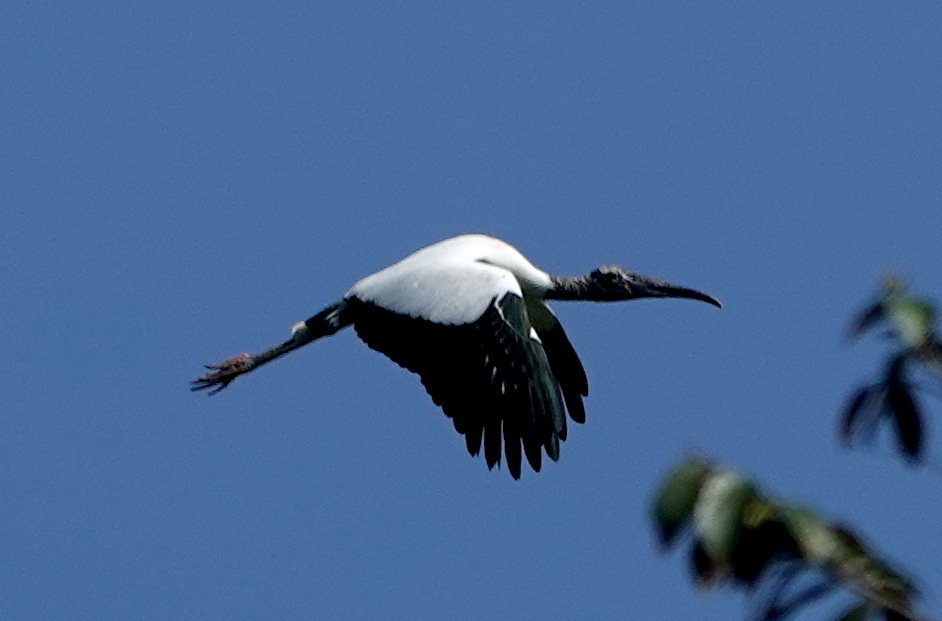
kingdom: Animalia
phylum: Chordata
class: Aves
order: Ciconiiformes
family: Ciconiidae
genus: Mycteria
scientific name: Mycteria americana
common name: Wood stork
